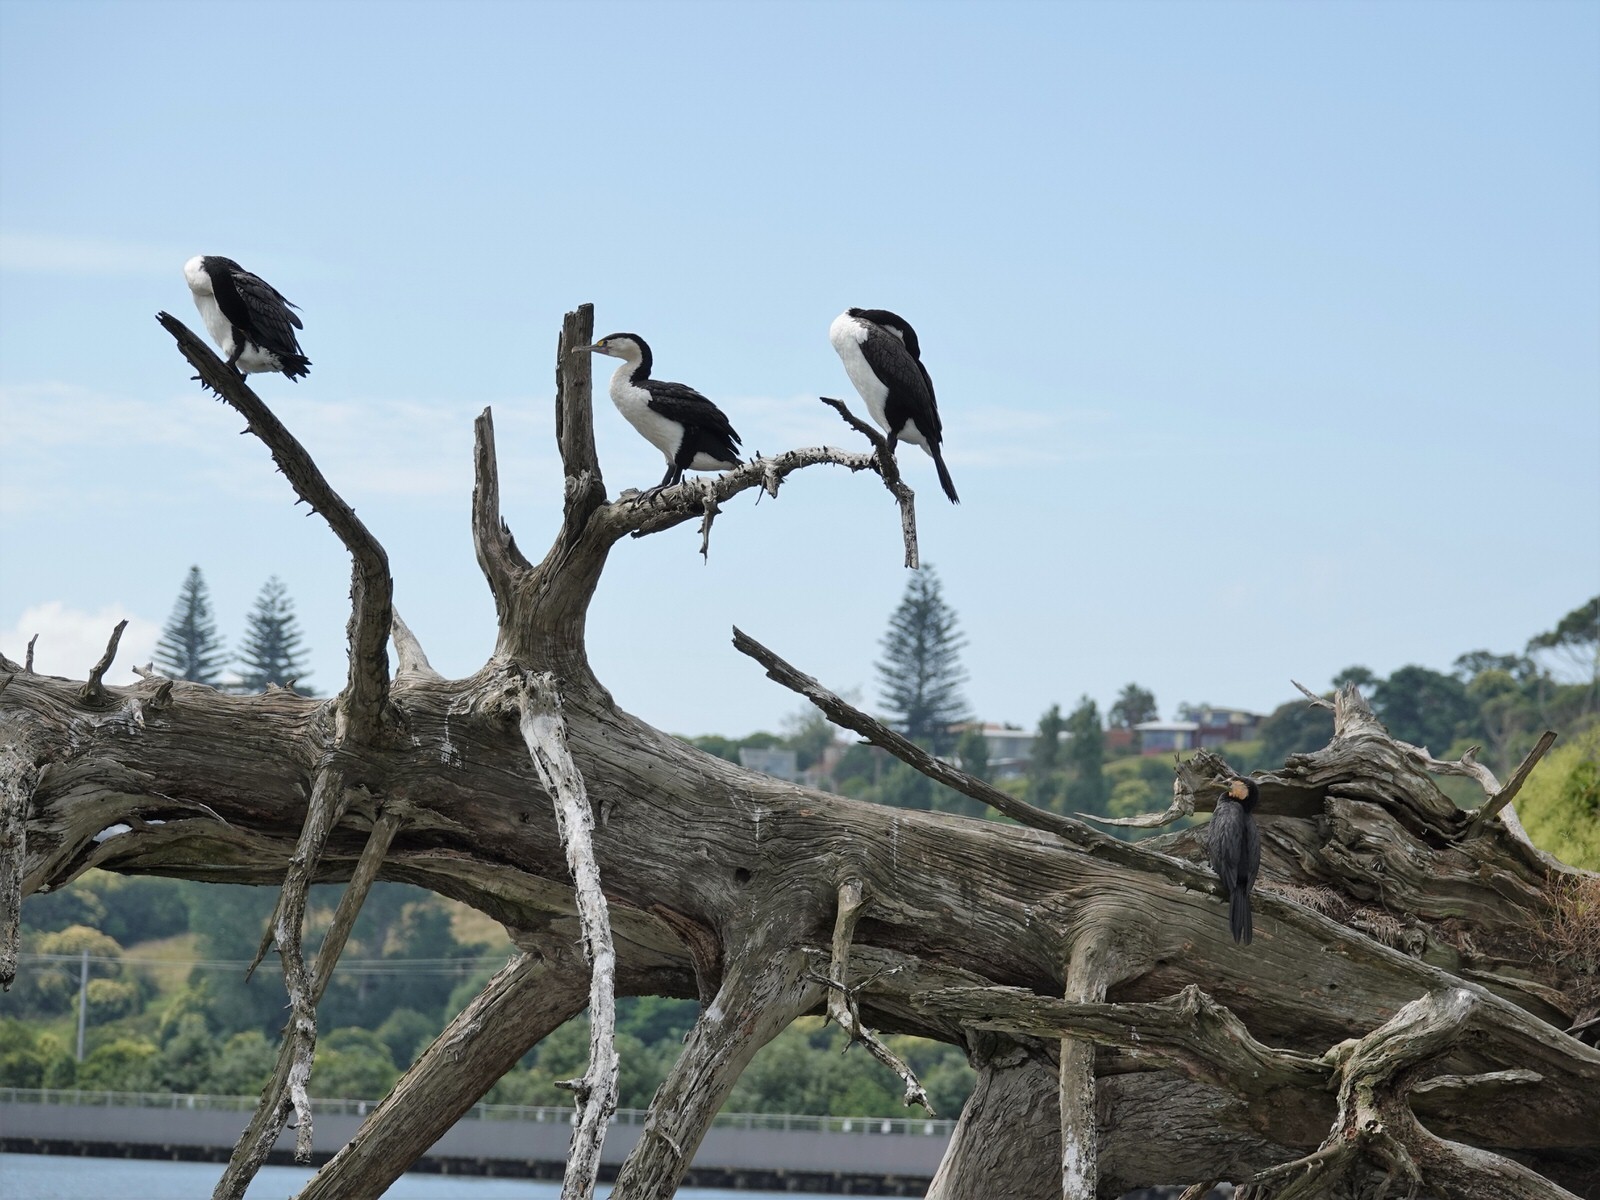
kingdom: Animalia
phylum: Chordata
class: Aves
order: Suliformes
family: Phalacrocoracidae
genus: Microcarbo
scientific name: Microcarbo melanoleucos
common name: Little pied cormorant
